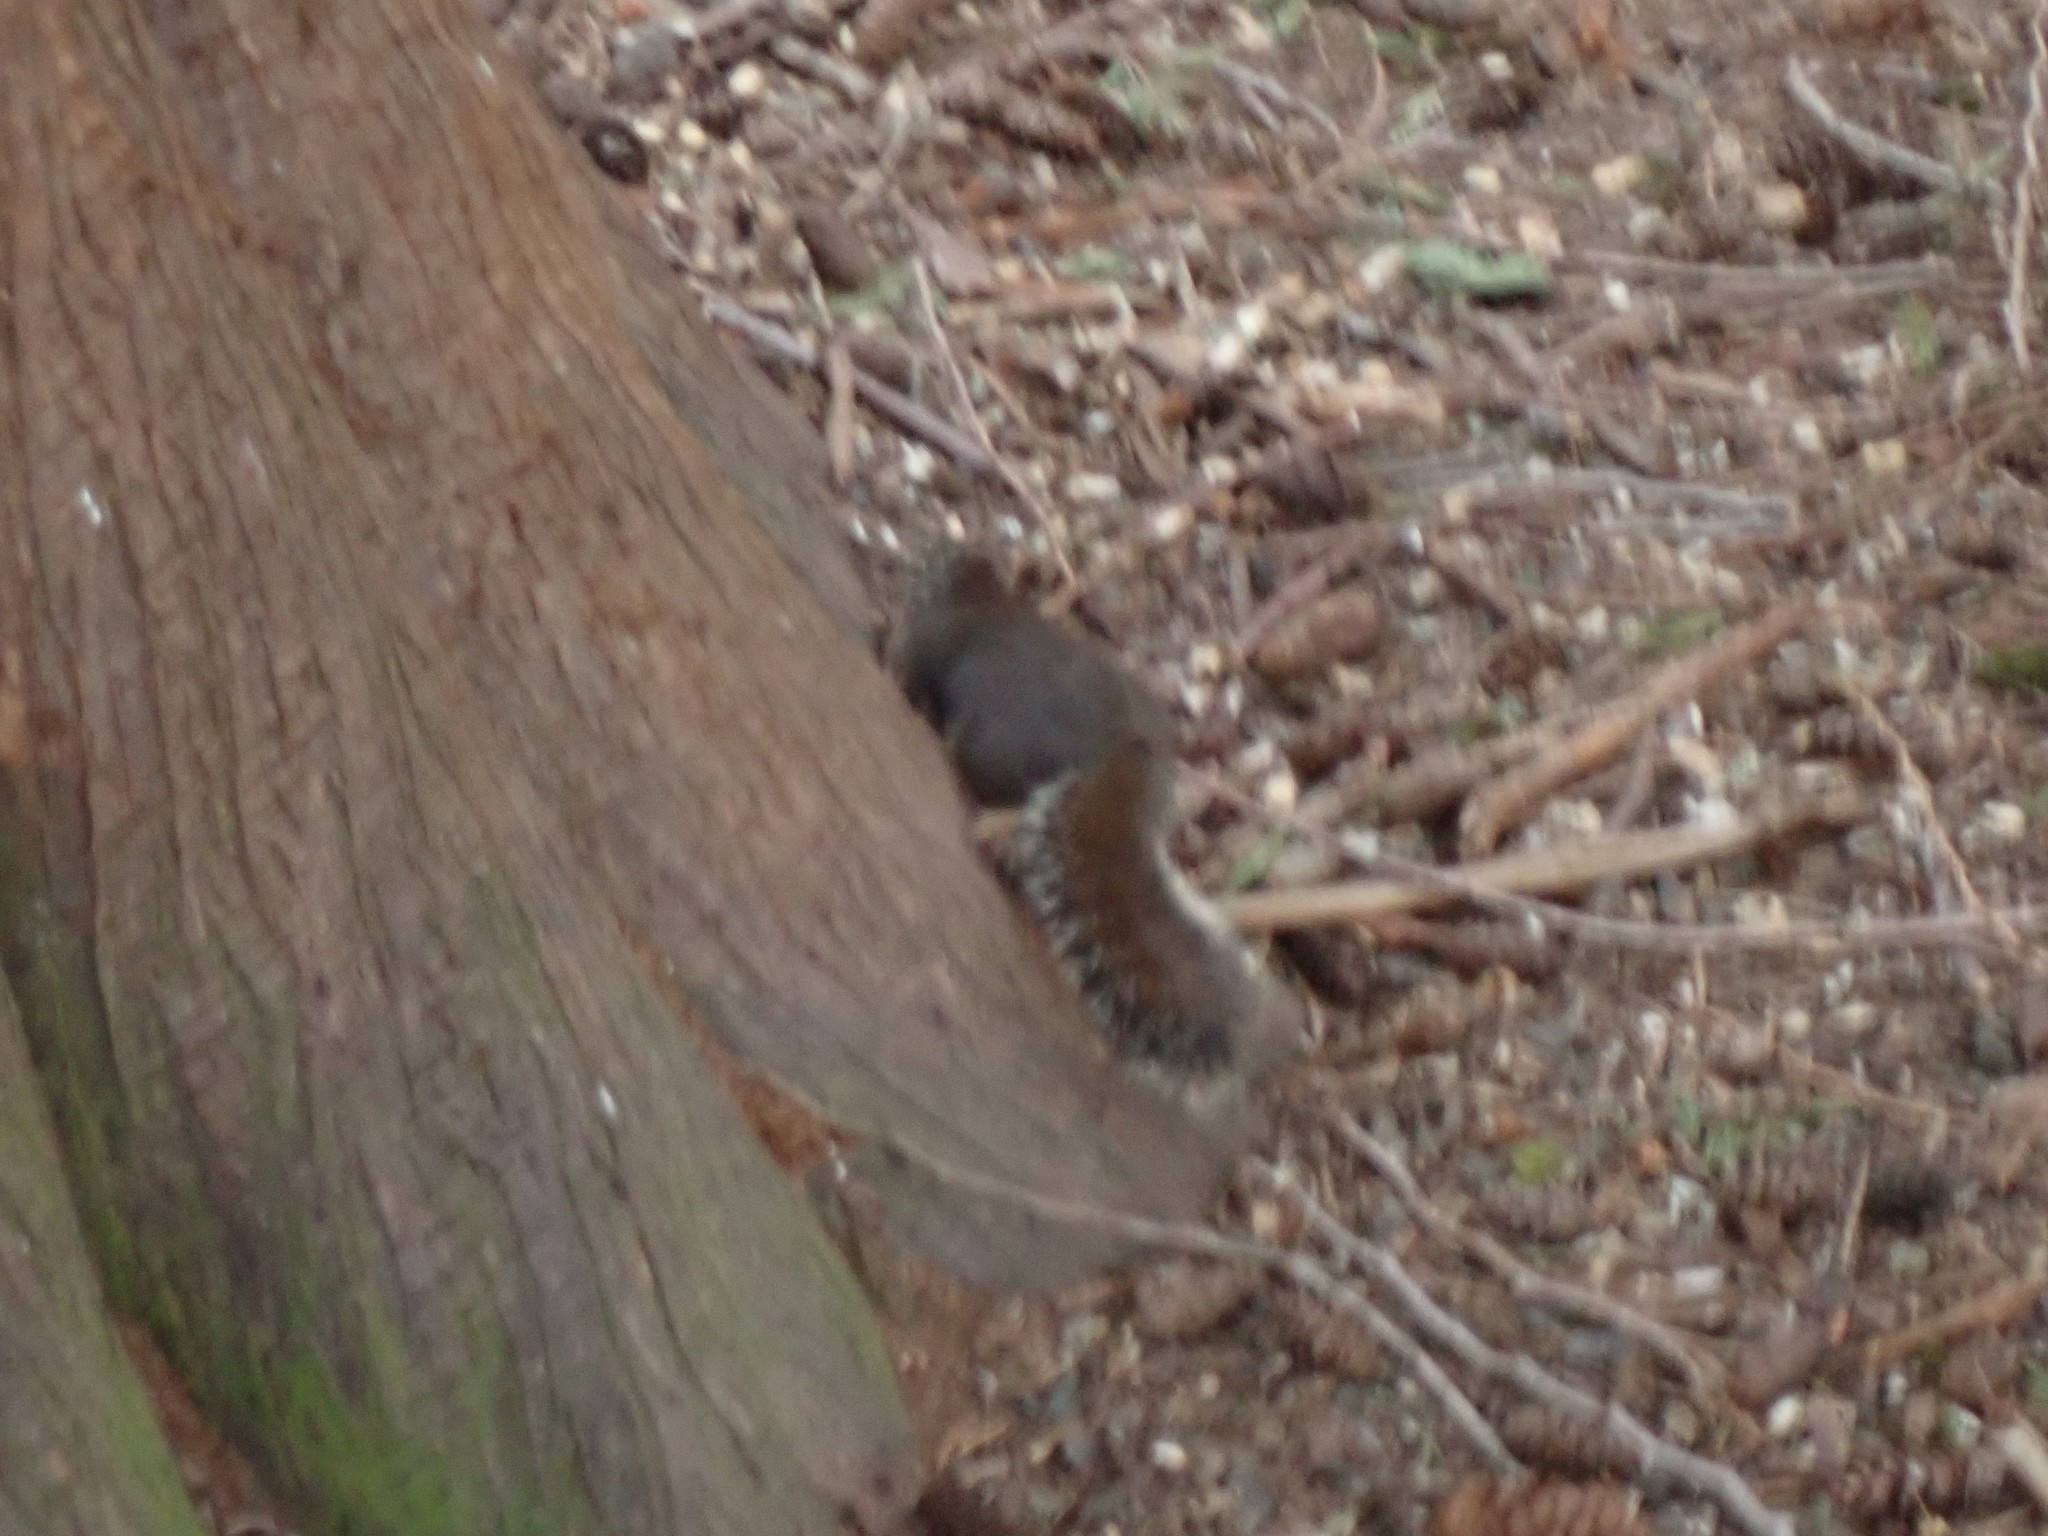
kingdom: Animalia
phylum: Chordata
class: Mammalia
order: Rodentia
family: Sciuridae
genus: Tamiasciurus
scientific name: Tamiasciurus douglasii
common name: Douglas's squirrel
